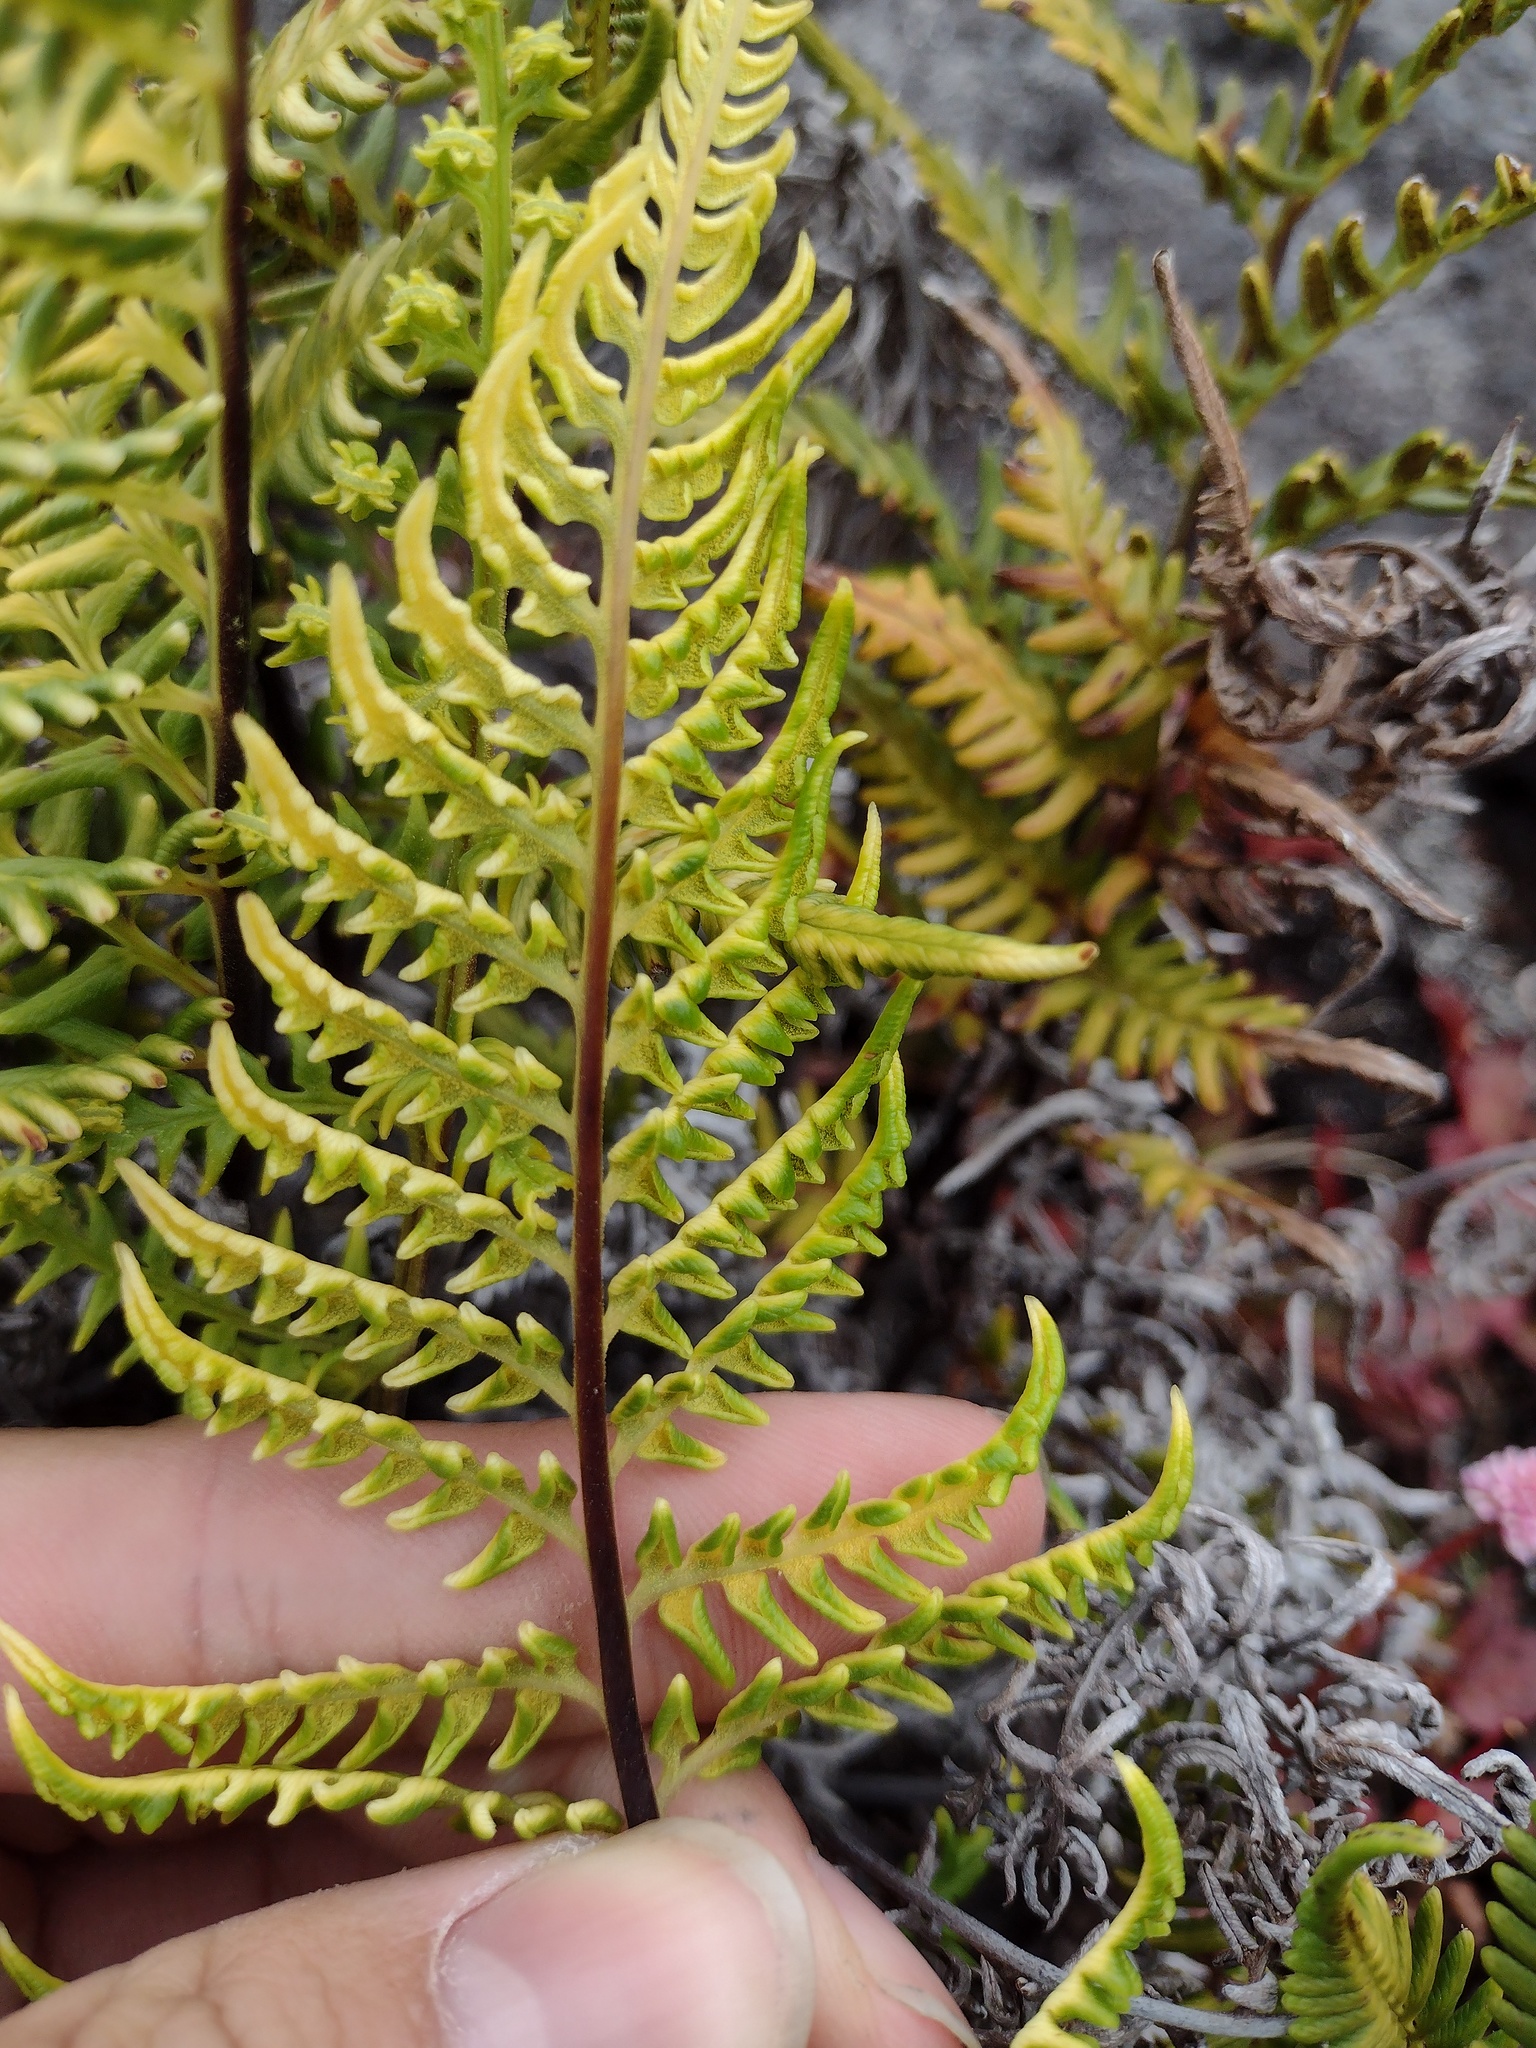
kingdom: Plantae
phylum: Tracheophyta
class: Polypodiopsida
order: Polypodiales
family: Pteridaceae
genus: Pityrogramma
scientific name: Pityrogramma austroamericana
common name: Leatherleaf goldback fern
